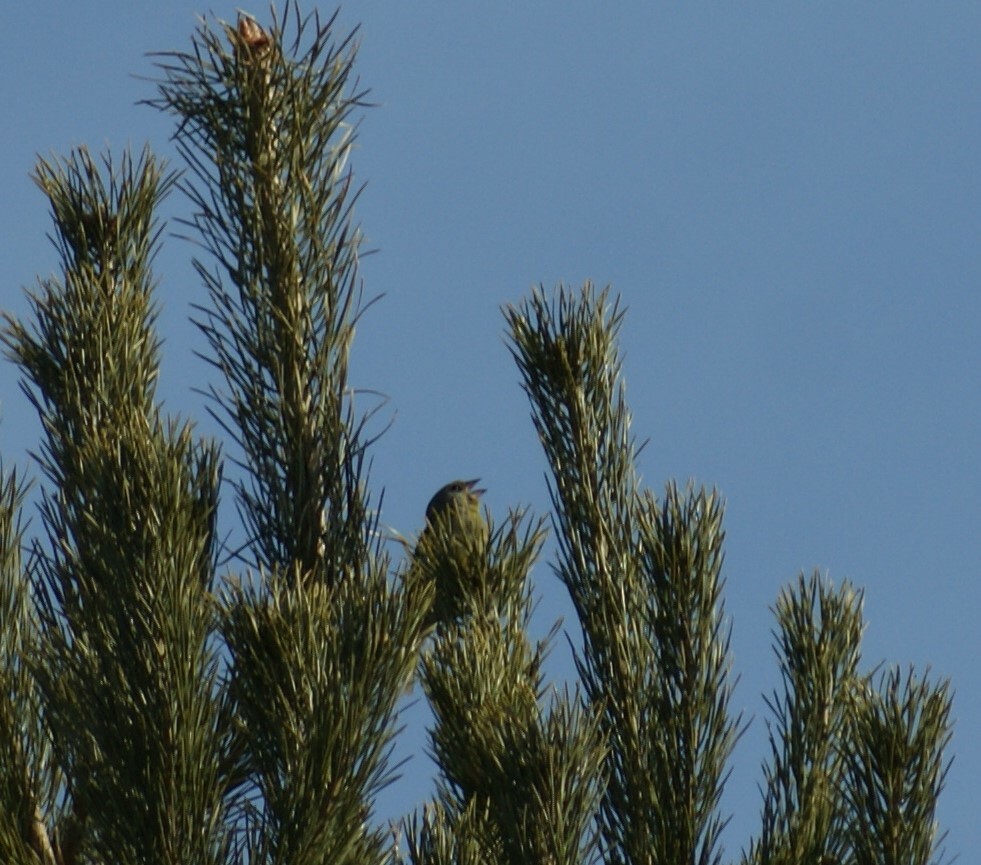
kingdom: Plantae
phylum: Tracheophyta
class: Liliopsida
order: Poales
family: Poaceae
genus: Chloris
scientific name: Chloris chloris
